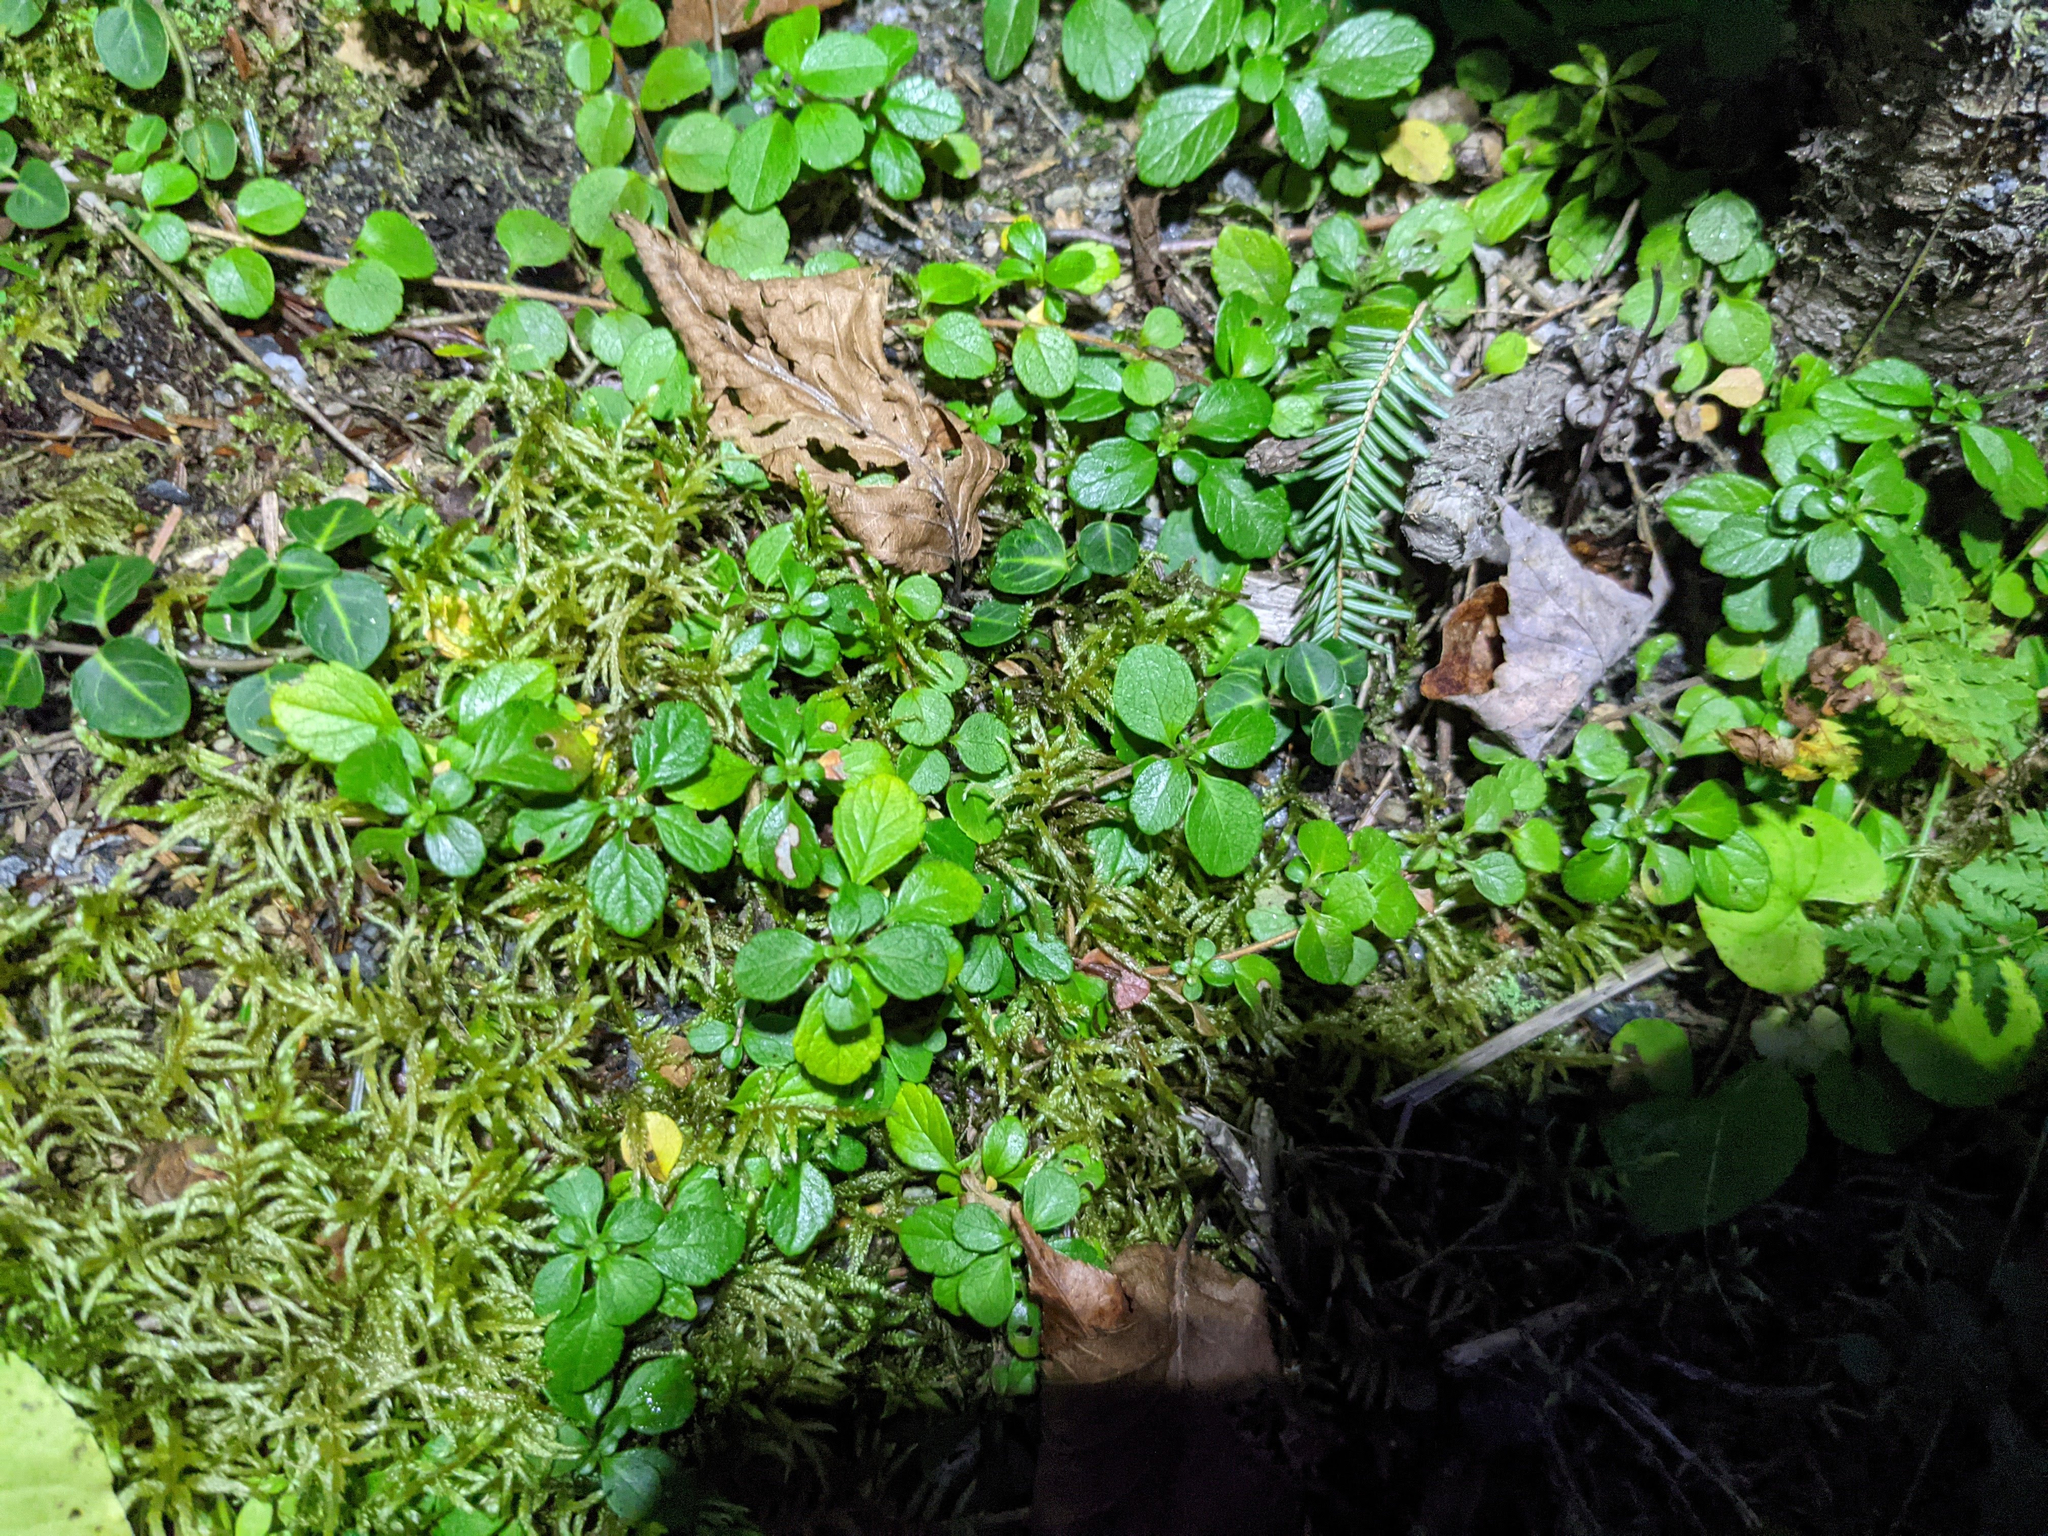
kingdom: Plantae
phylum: Tracheophyta
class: Magnoliopsida
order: Dipsacales
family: Caprifoliaceae
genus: Linnaea
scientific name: Linnaea borealis
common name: Twinflower
